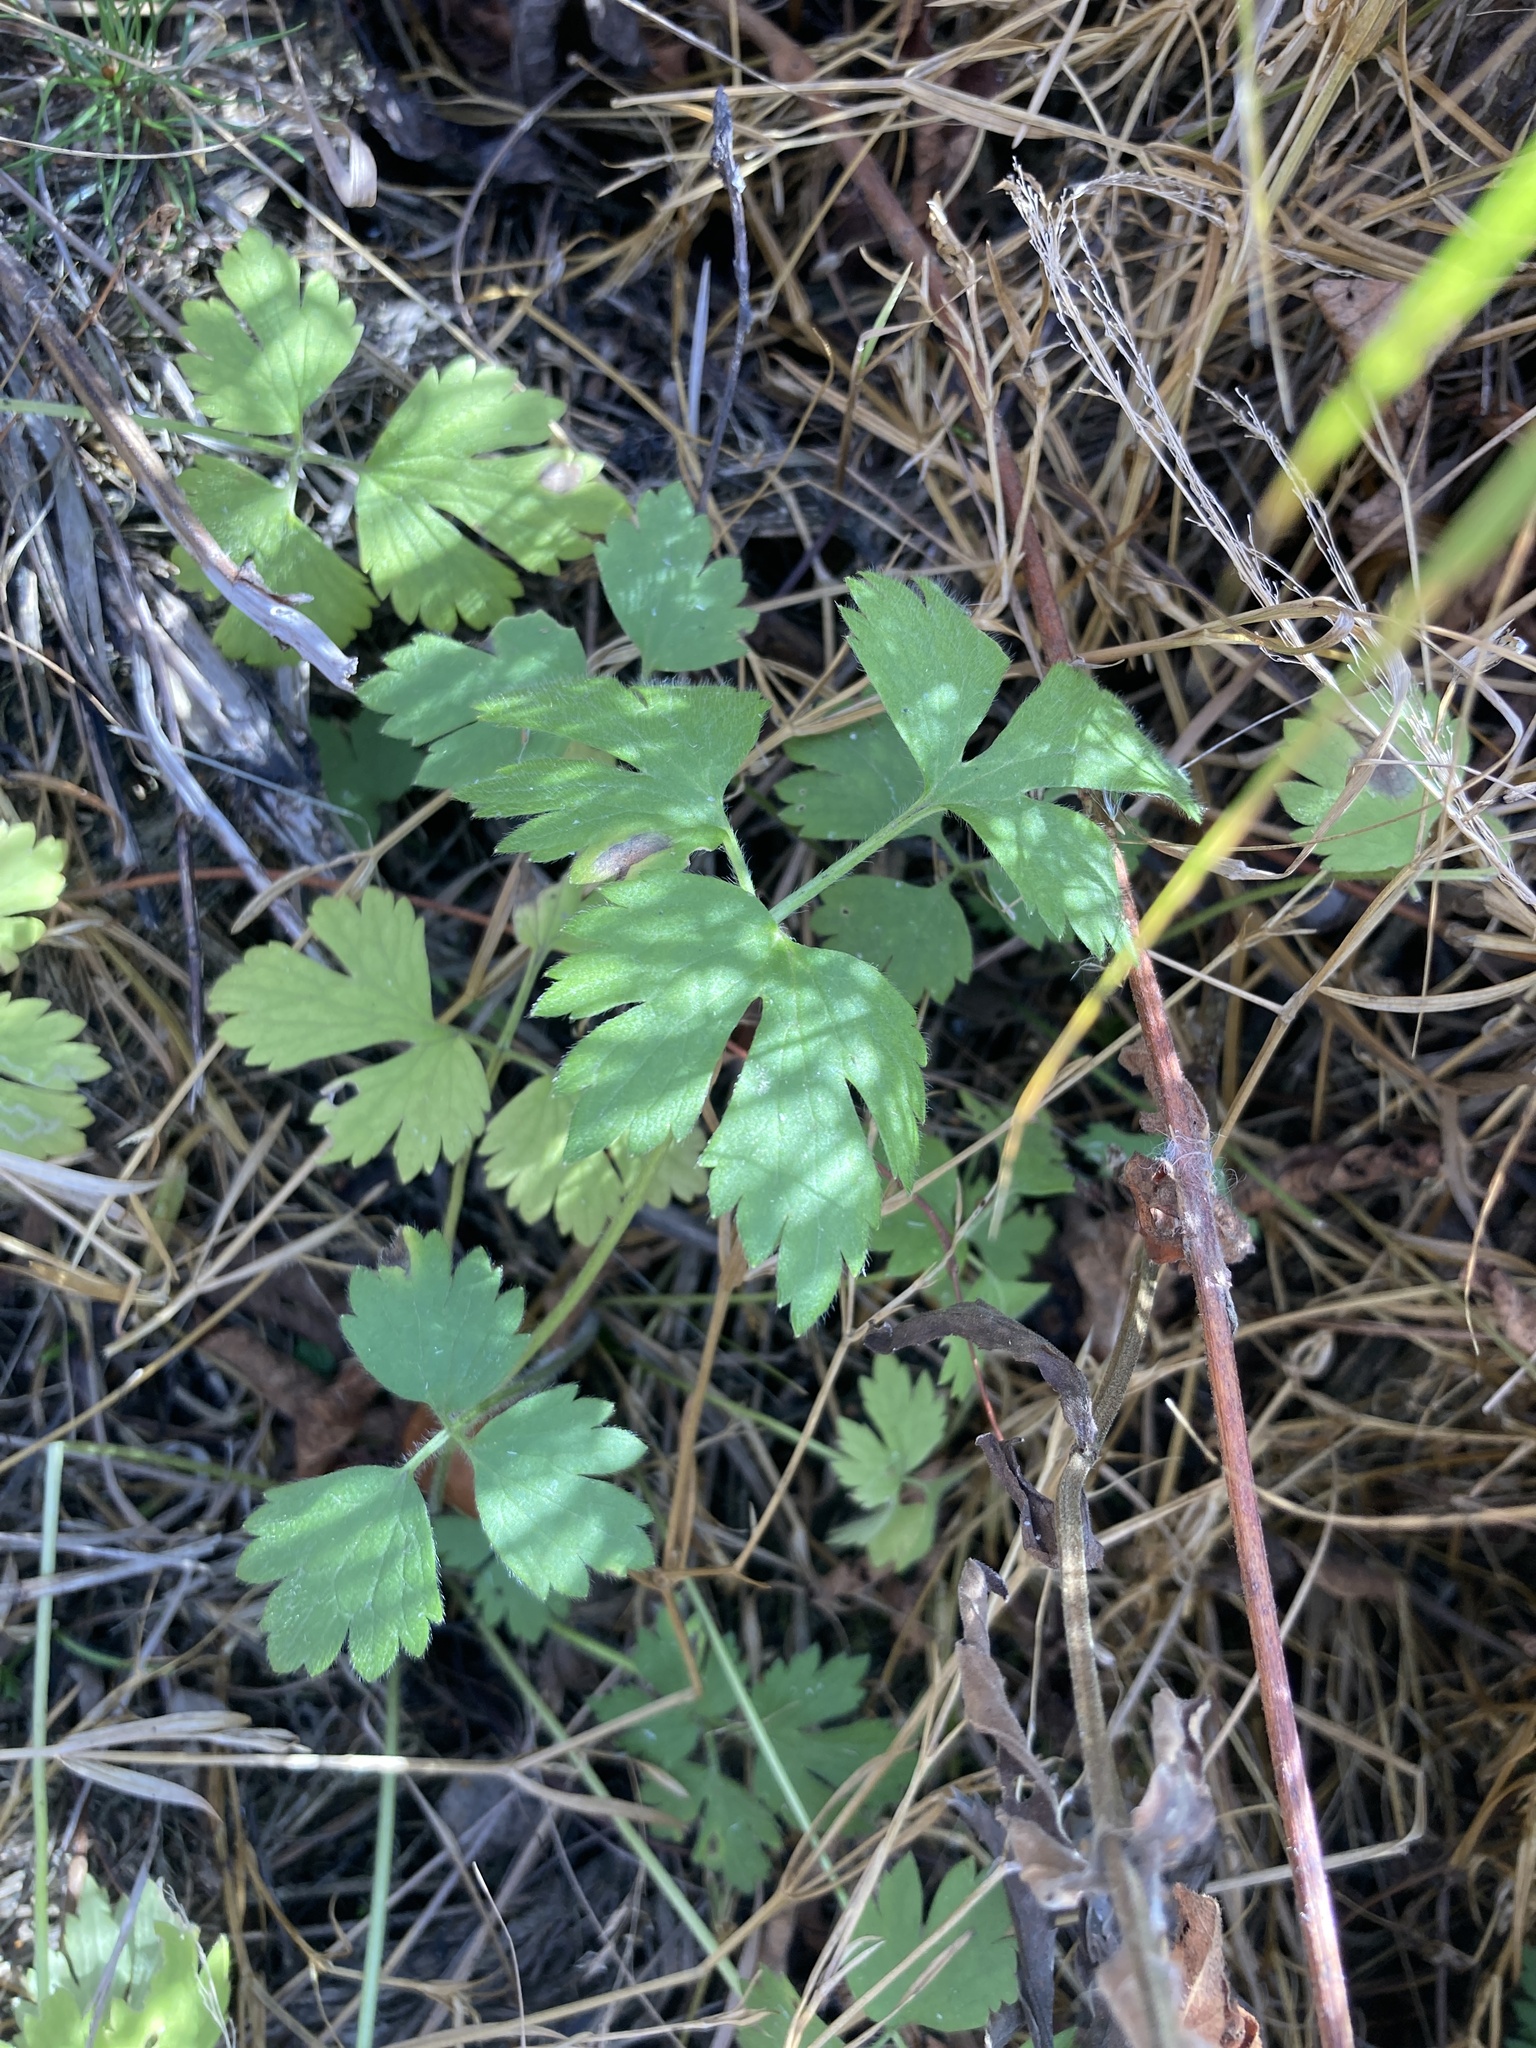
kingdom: Plantae
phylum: Tracheophyta
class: Magnoliopsida
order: Ranunculales
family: Ranunculaceae
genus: Ranunculus
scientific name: Ranunculus repens
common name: Creeping buttercup
